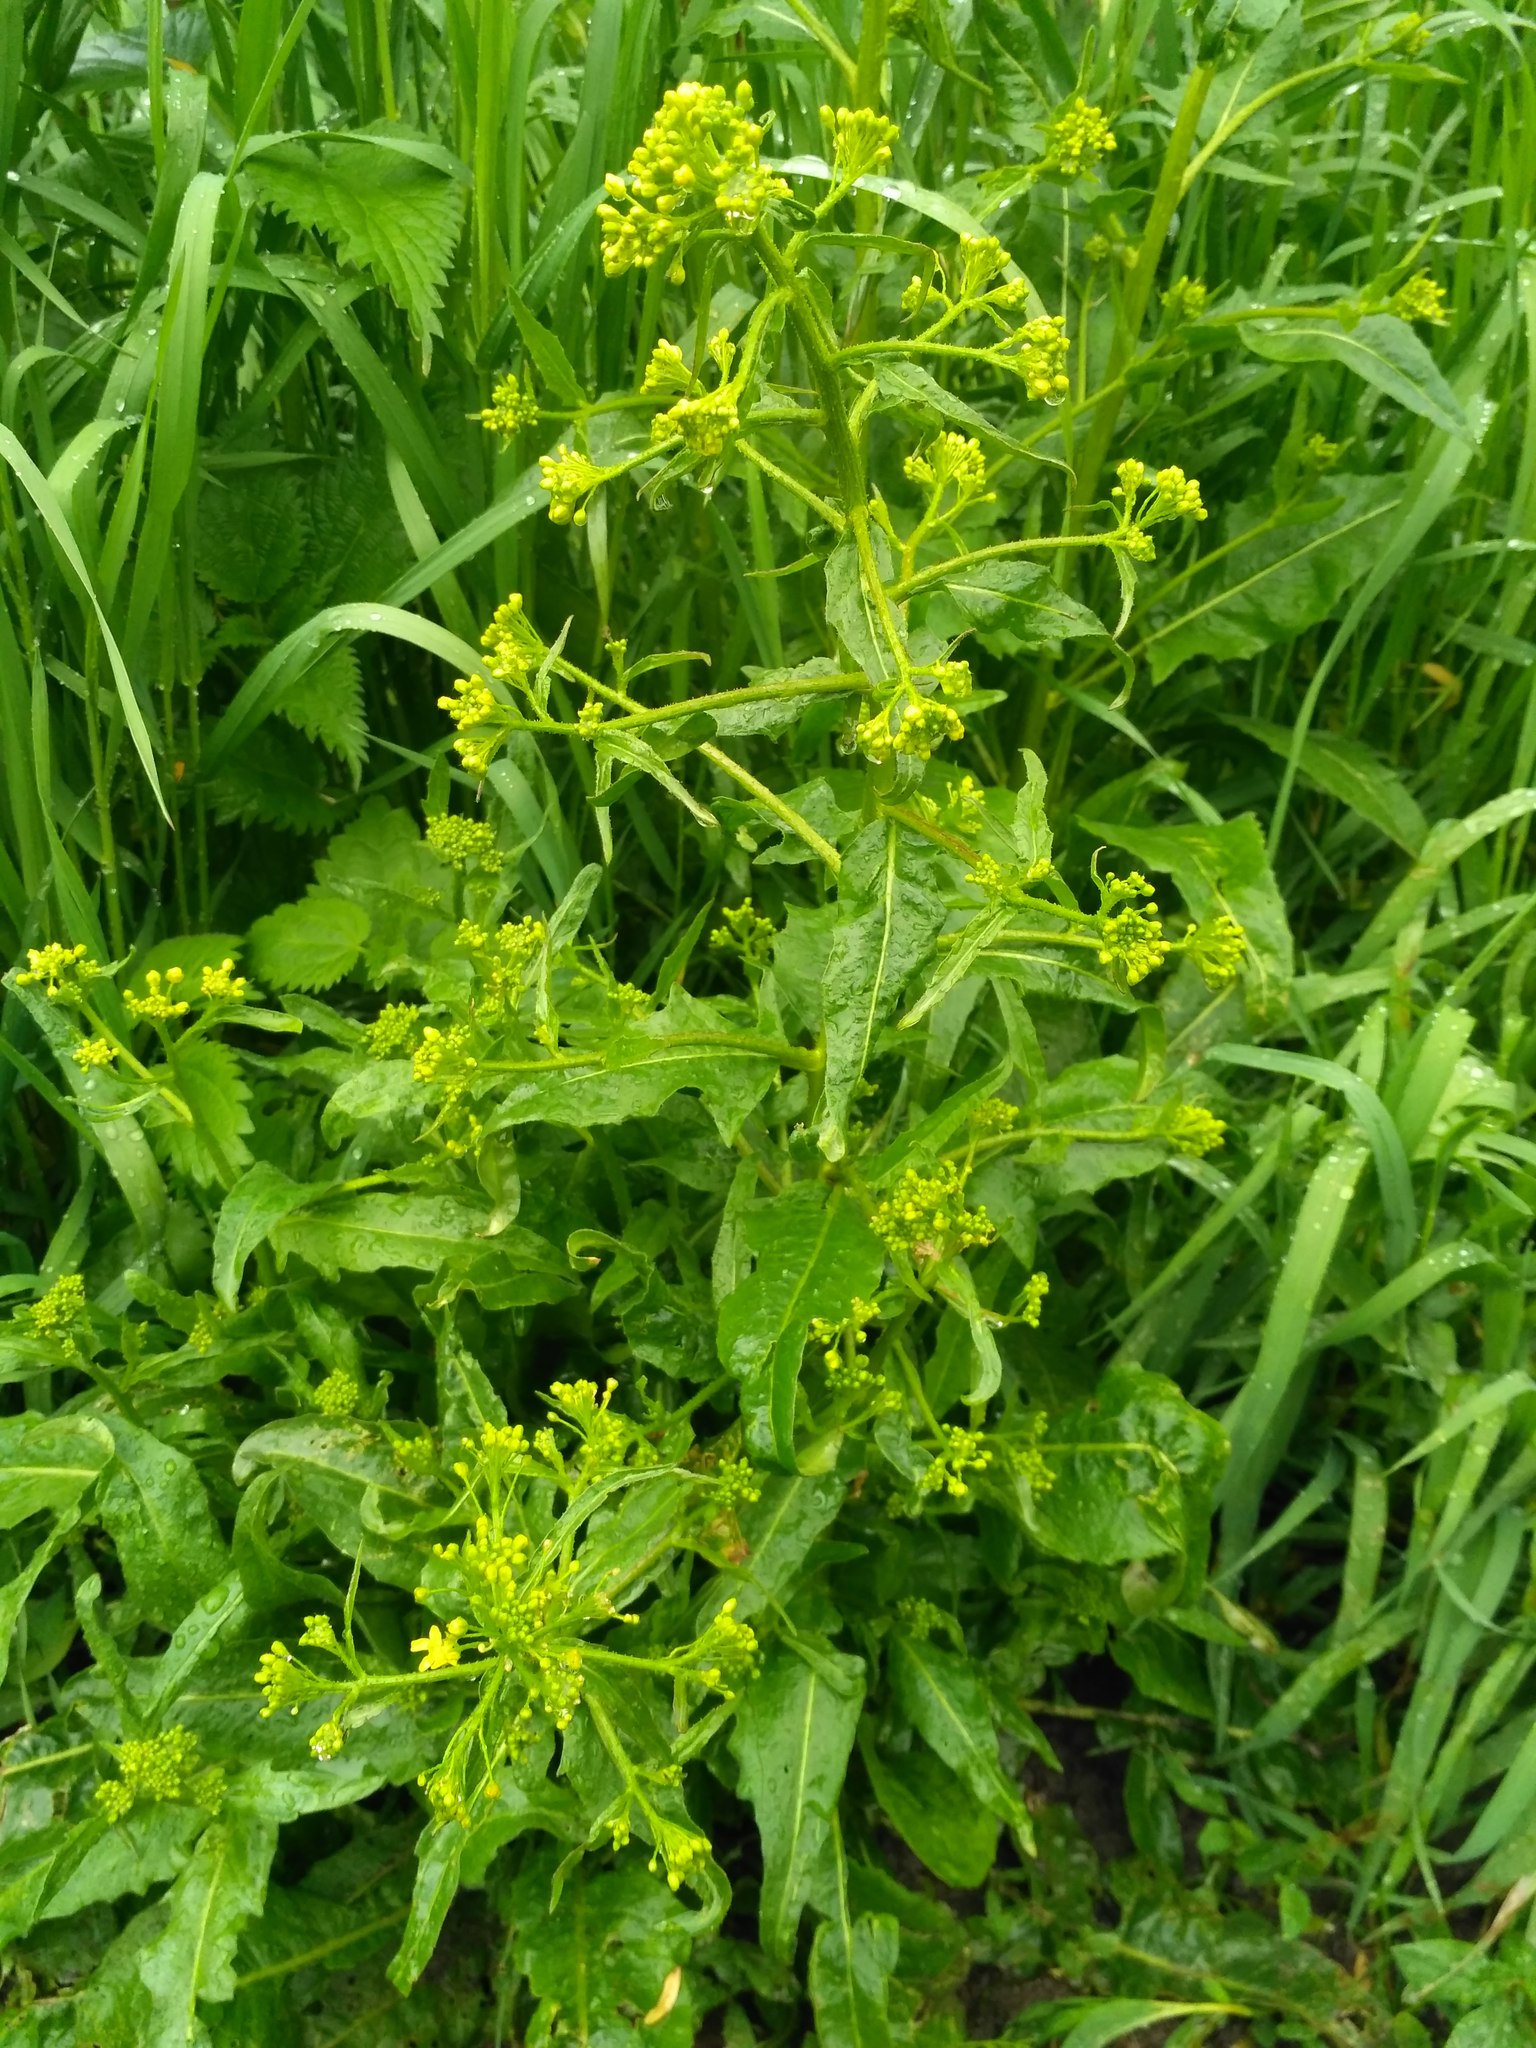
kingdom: Plantae
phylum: Tracheophyta
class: Magnoliopsida
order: Brassicales
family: Brassicaceae
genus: Bunias
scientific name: Bunias orientalis
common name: Warty-cabbage
